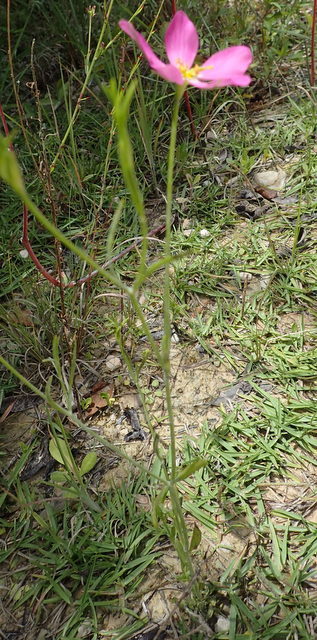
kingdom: Plantae
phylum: Tracheophyta
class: Magnoliopsida
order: Gentianales
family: Gentianaceae
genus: Sabatia
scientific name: Sabatia stellaris
